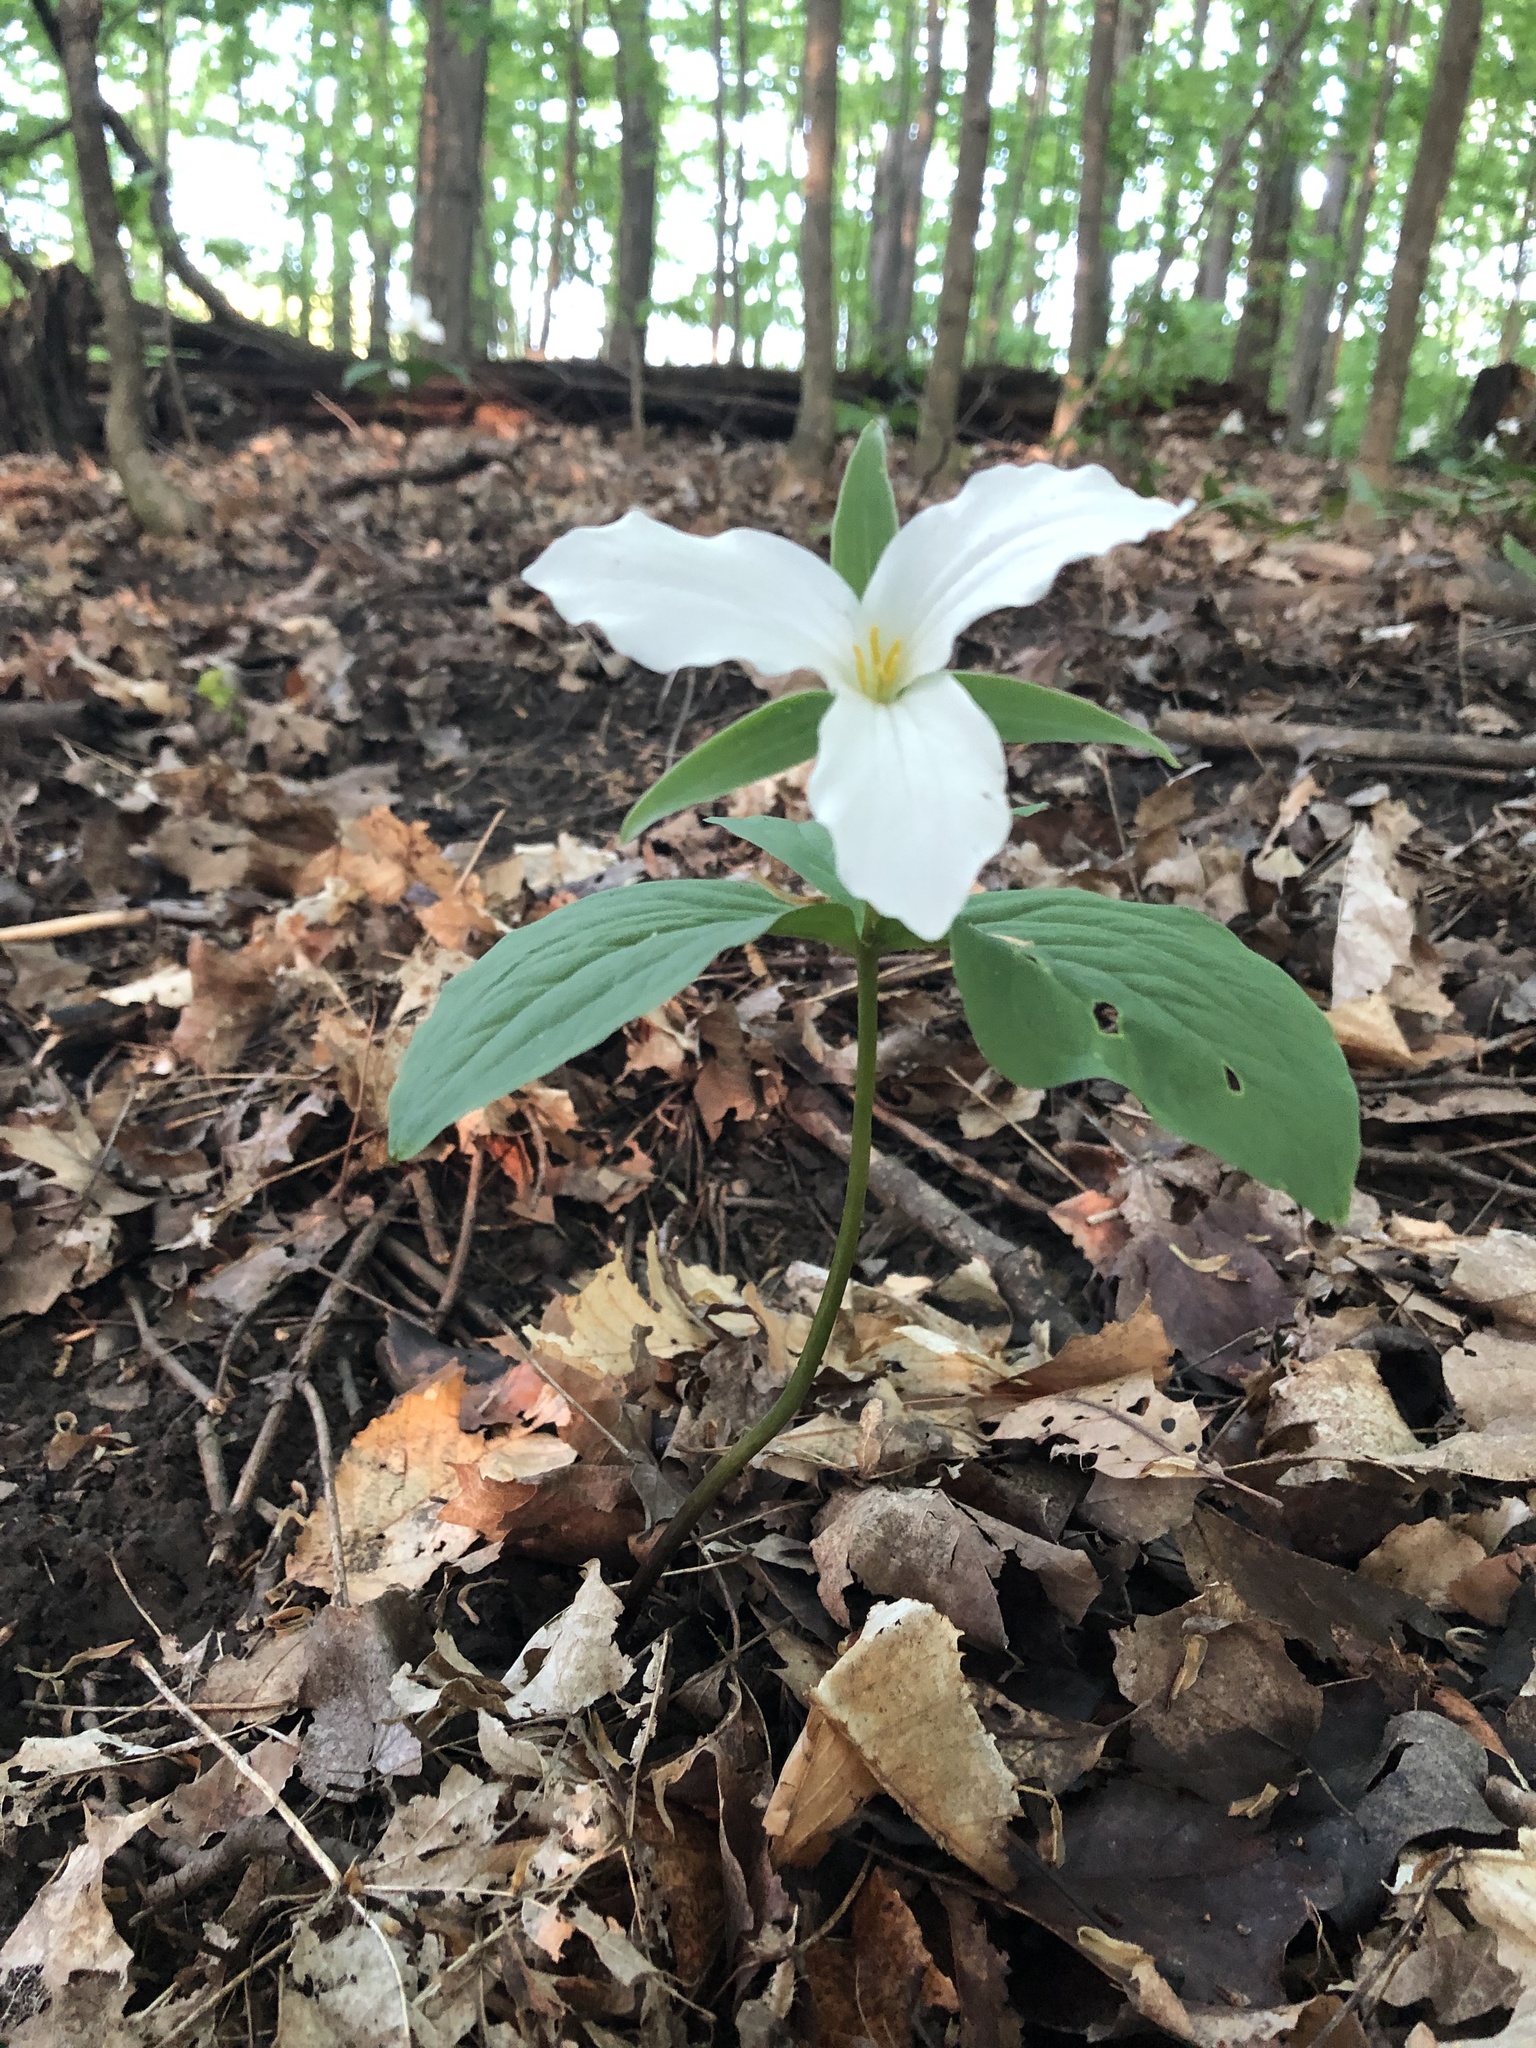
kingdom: Plantae
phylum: Tracheophyta
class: Liliopsida
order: Liliales
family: Melanthiaceae
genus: Trillium
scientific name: Trillium grandiflorum
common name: Great white trillium
